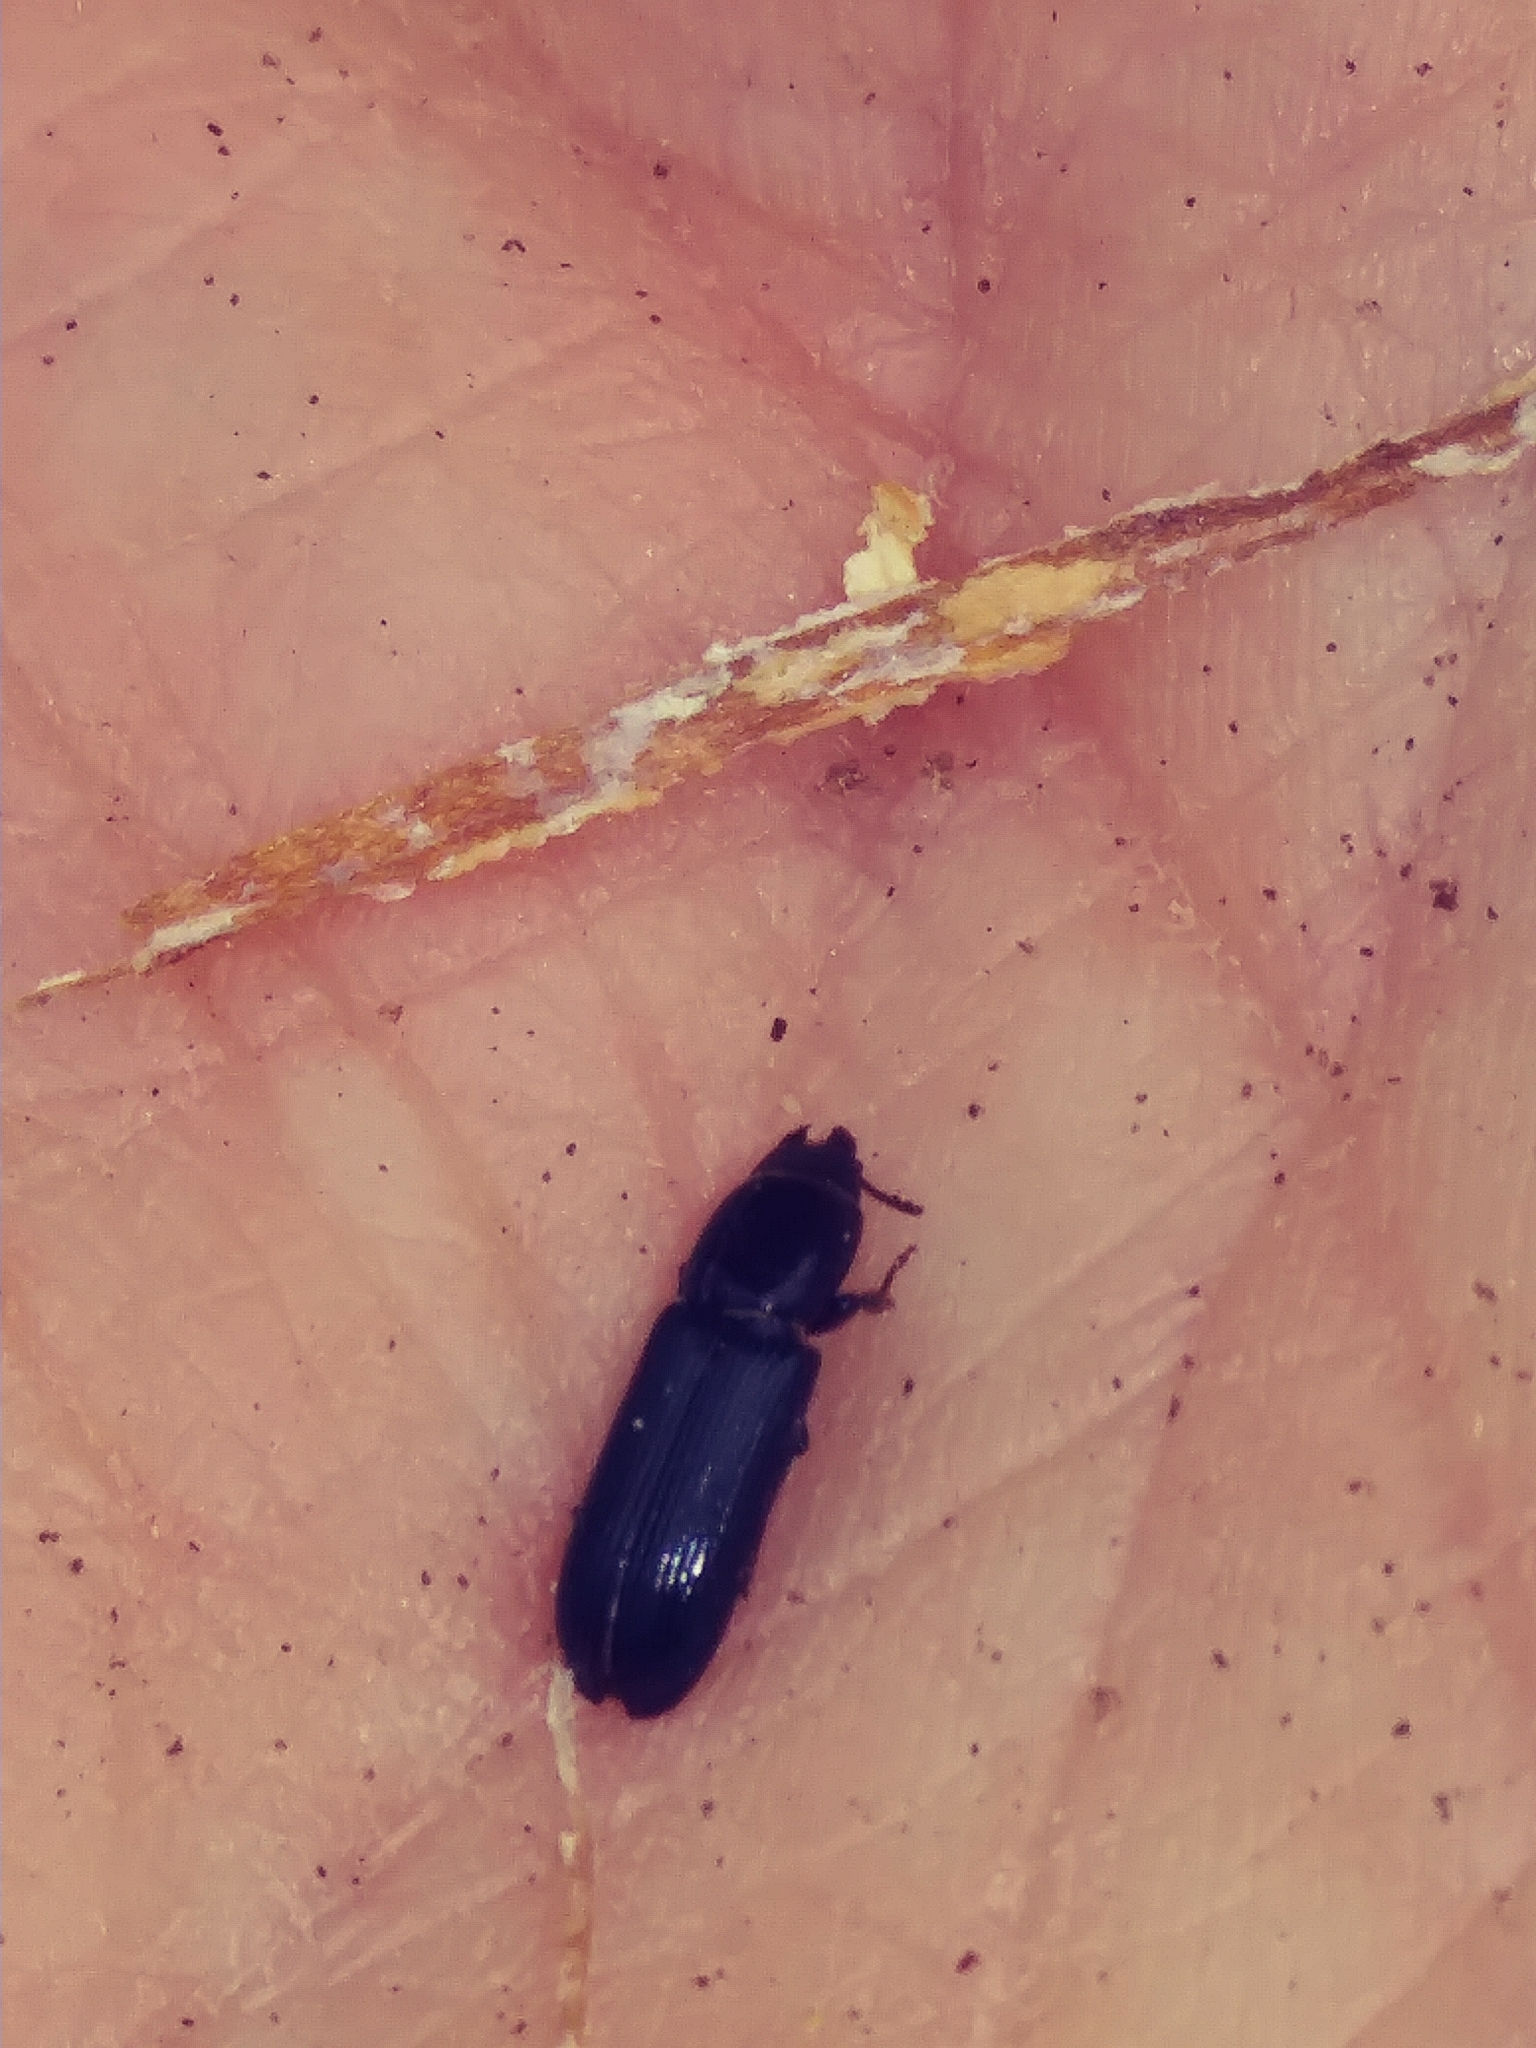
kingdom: Animalia
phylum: Arthropoda
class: Insecta
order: Coleoptera
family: Trogossitidae
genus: Airora
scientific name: Airora cylindrica
